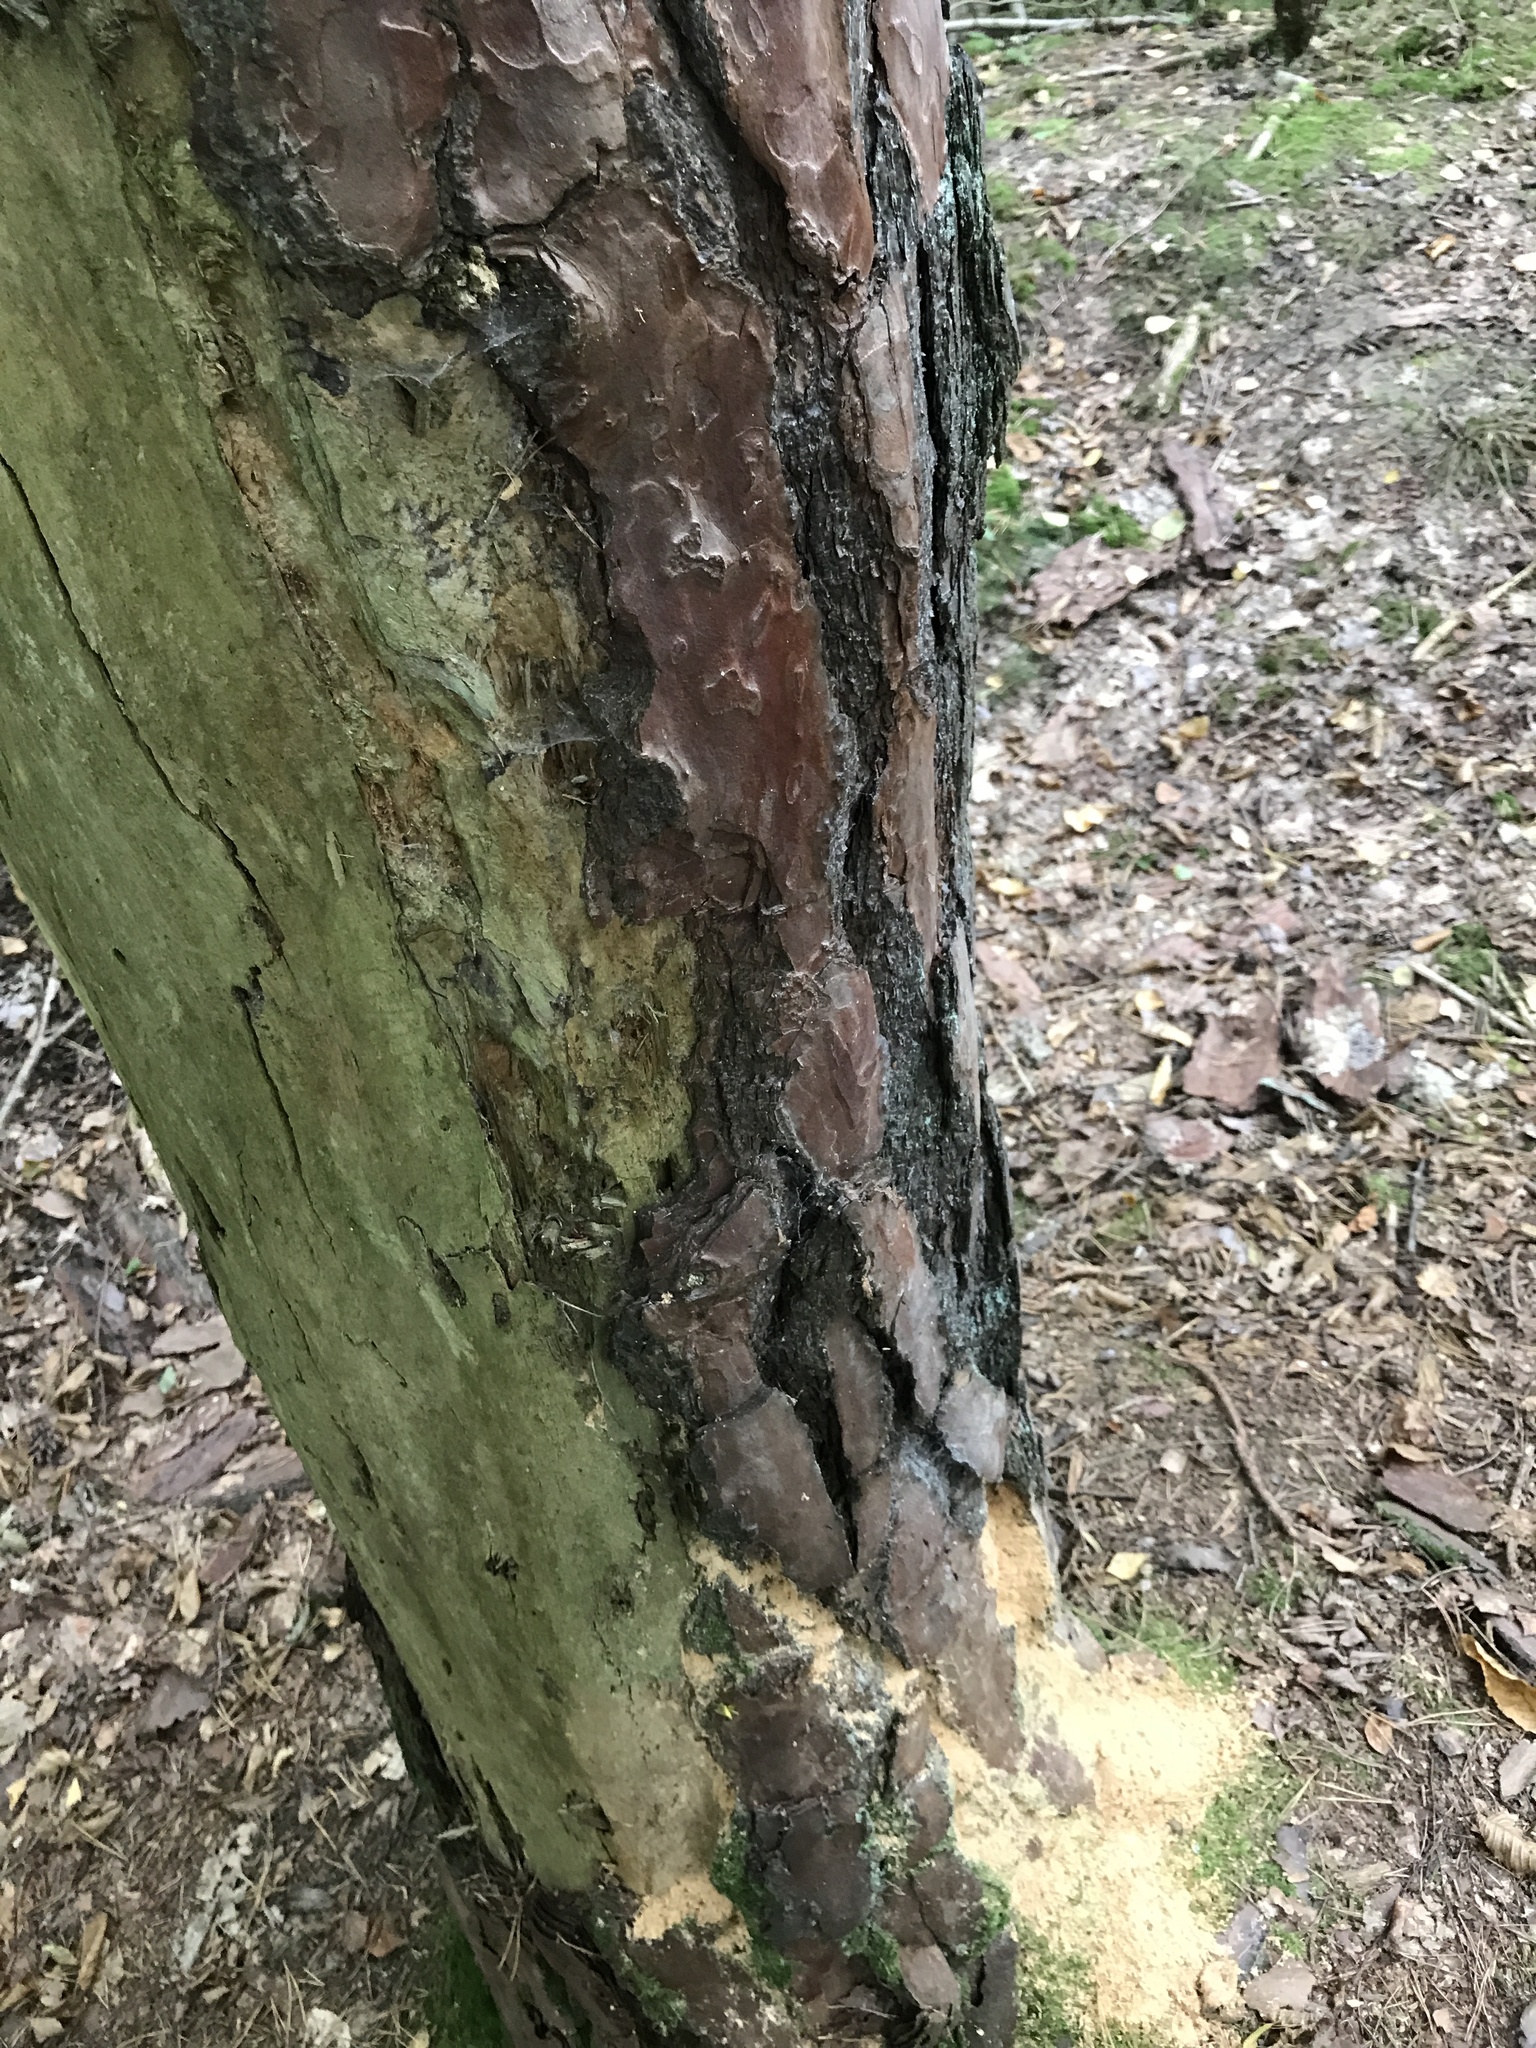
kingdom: Plantae
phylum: Tracheophyta
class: Pinopsida
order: Pinales
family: Pinaceae
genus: Pinus
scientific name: Pinus sylvestris
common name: Scots pine
